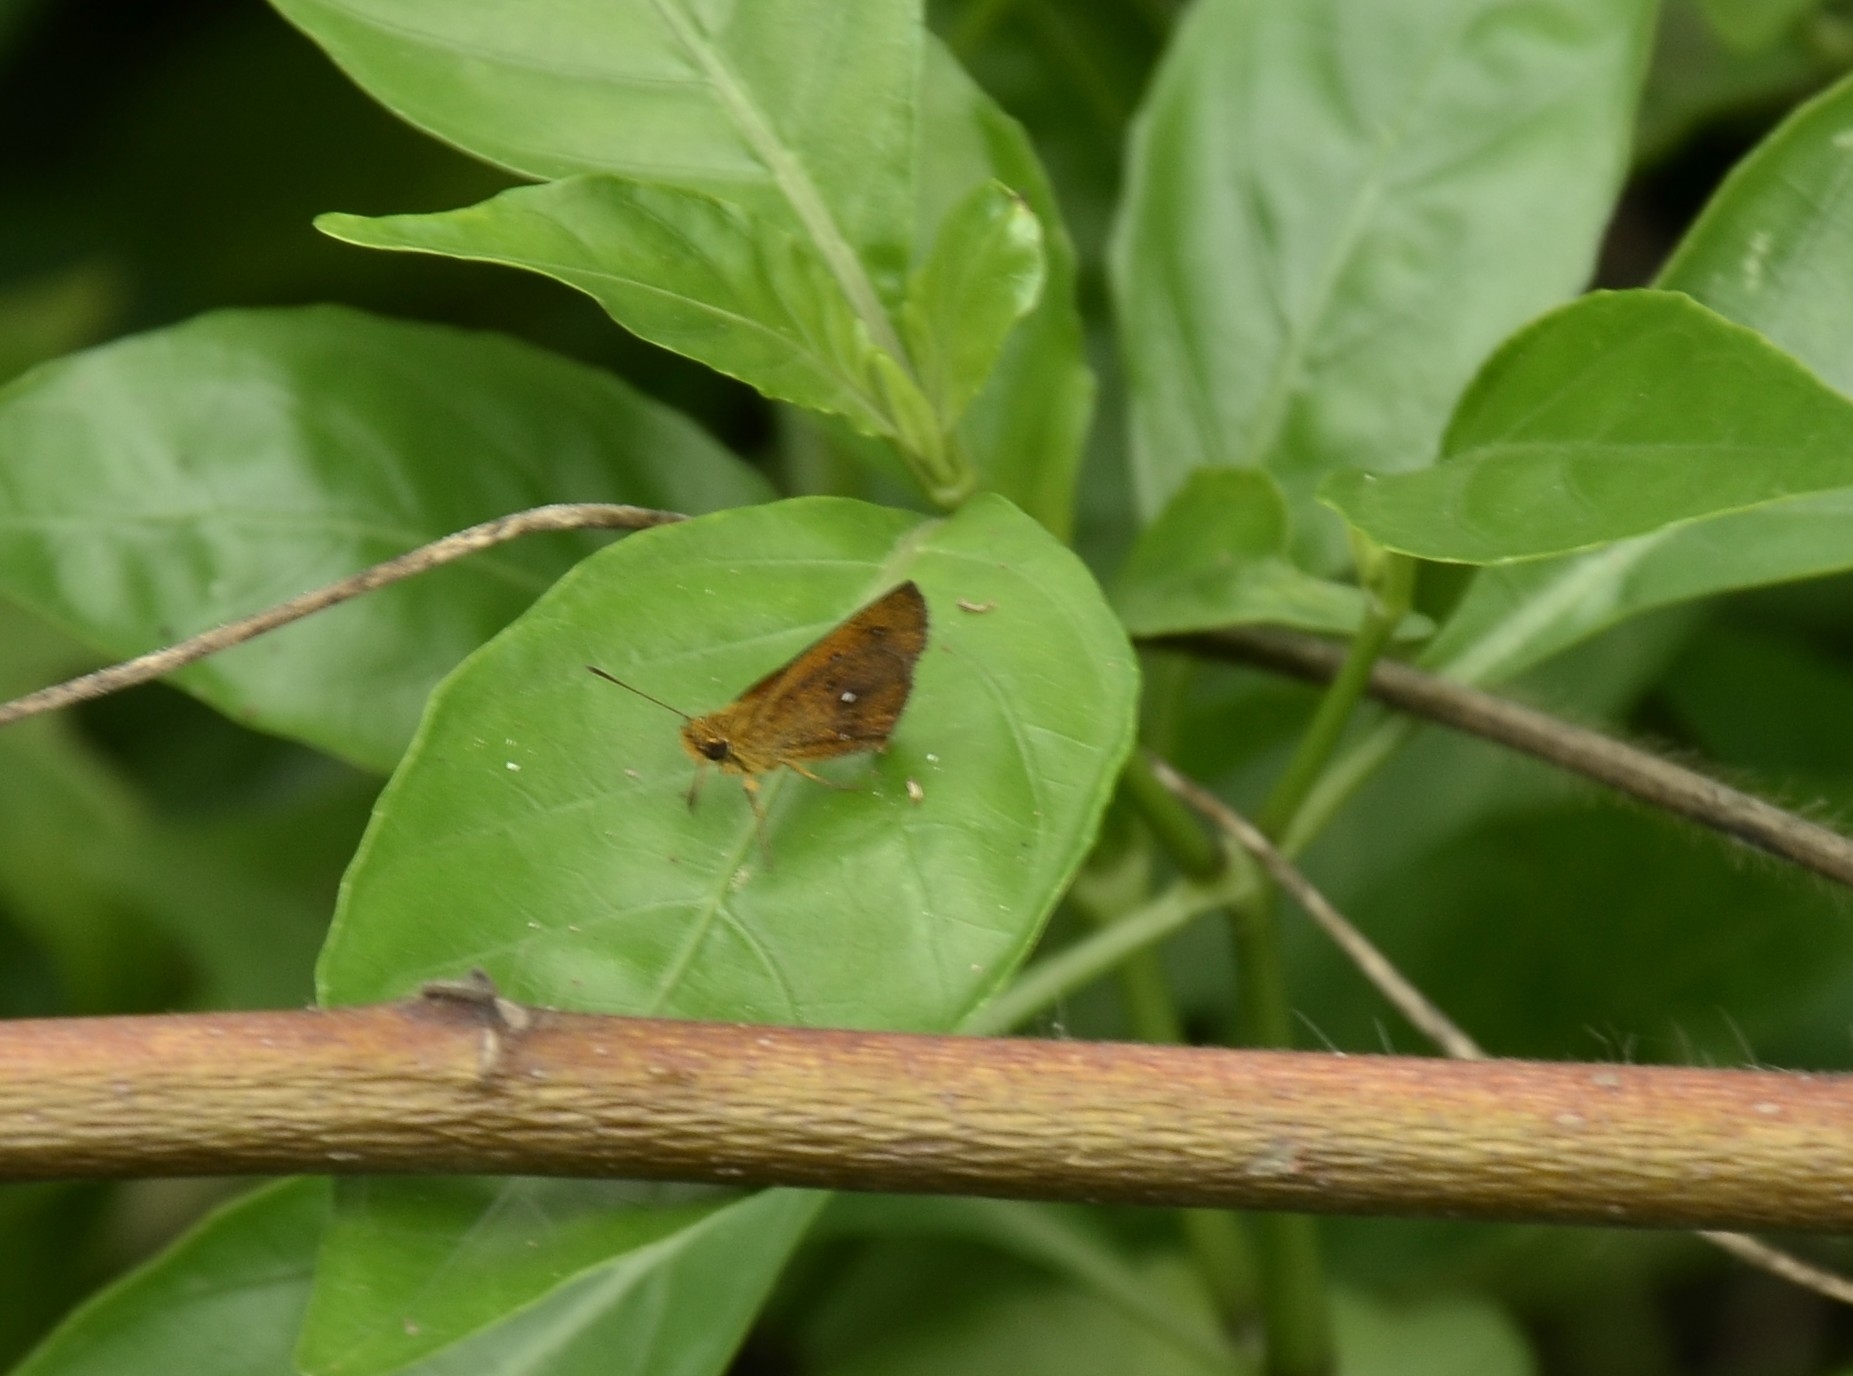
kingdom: Animalia
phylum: Arthropoda
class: Insecta
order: Lepidoptera
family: Hesperiidae
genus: Iambrix
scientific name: Iambrix salsala
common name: Chestnut bob
